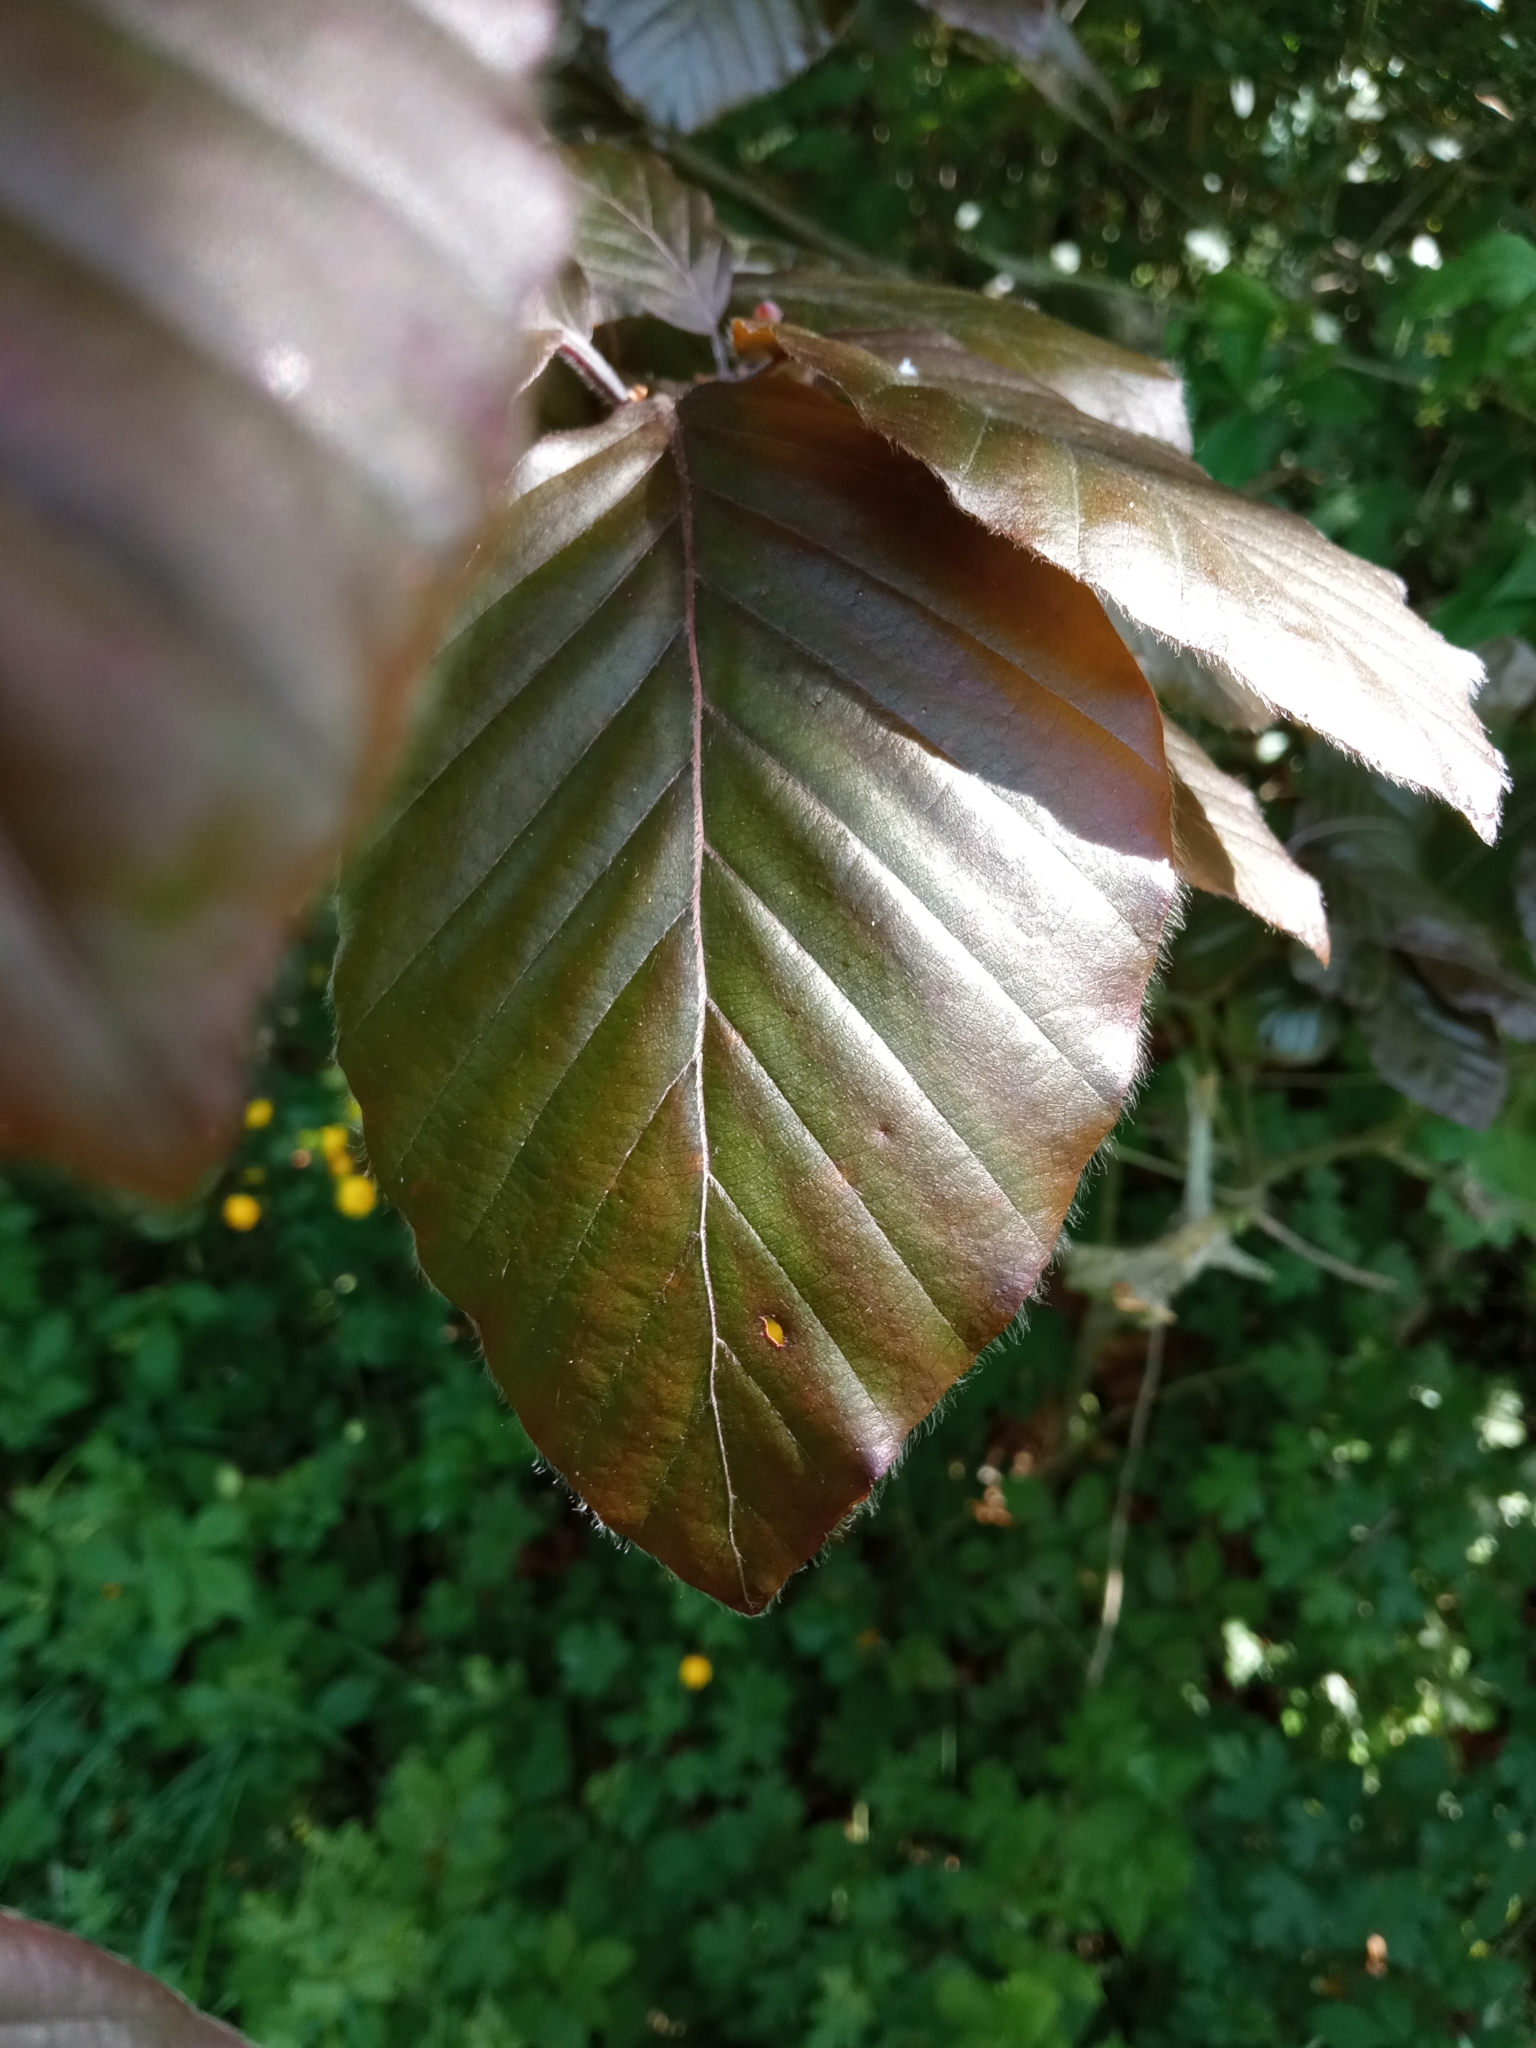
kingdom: Plantae
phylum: Tracheophyta
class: Magnoliopsida
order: Fagales
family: Fagaceae
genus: Fagus
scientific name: Fagus sylvatica
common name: Beech
